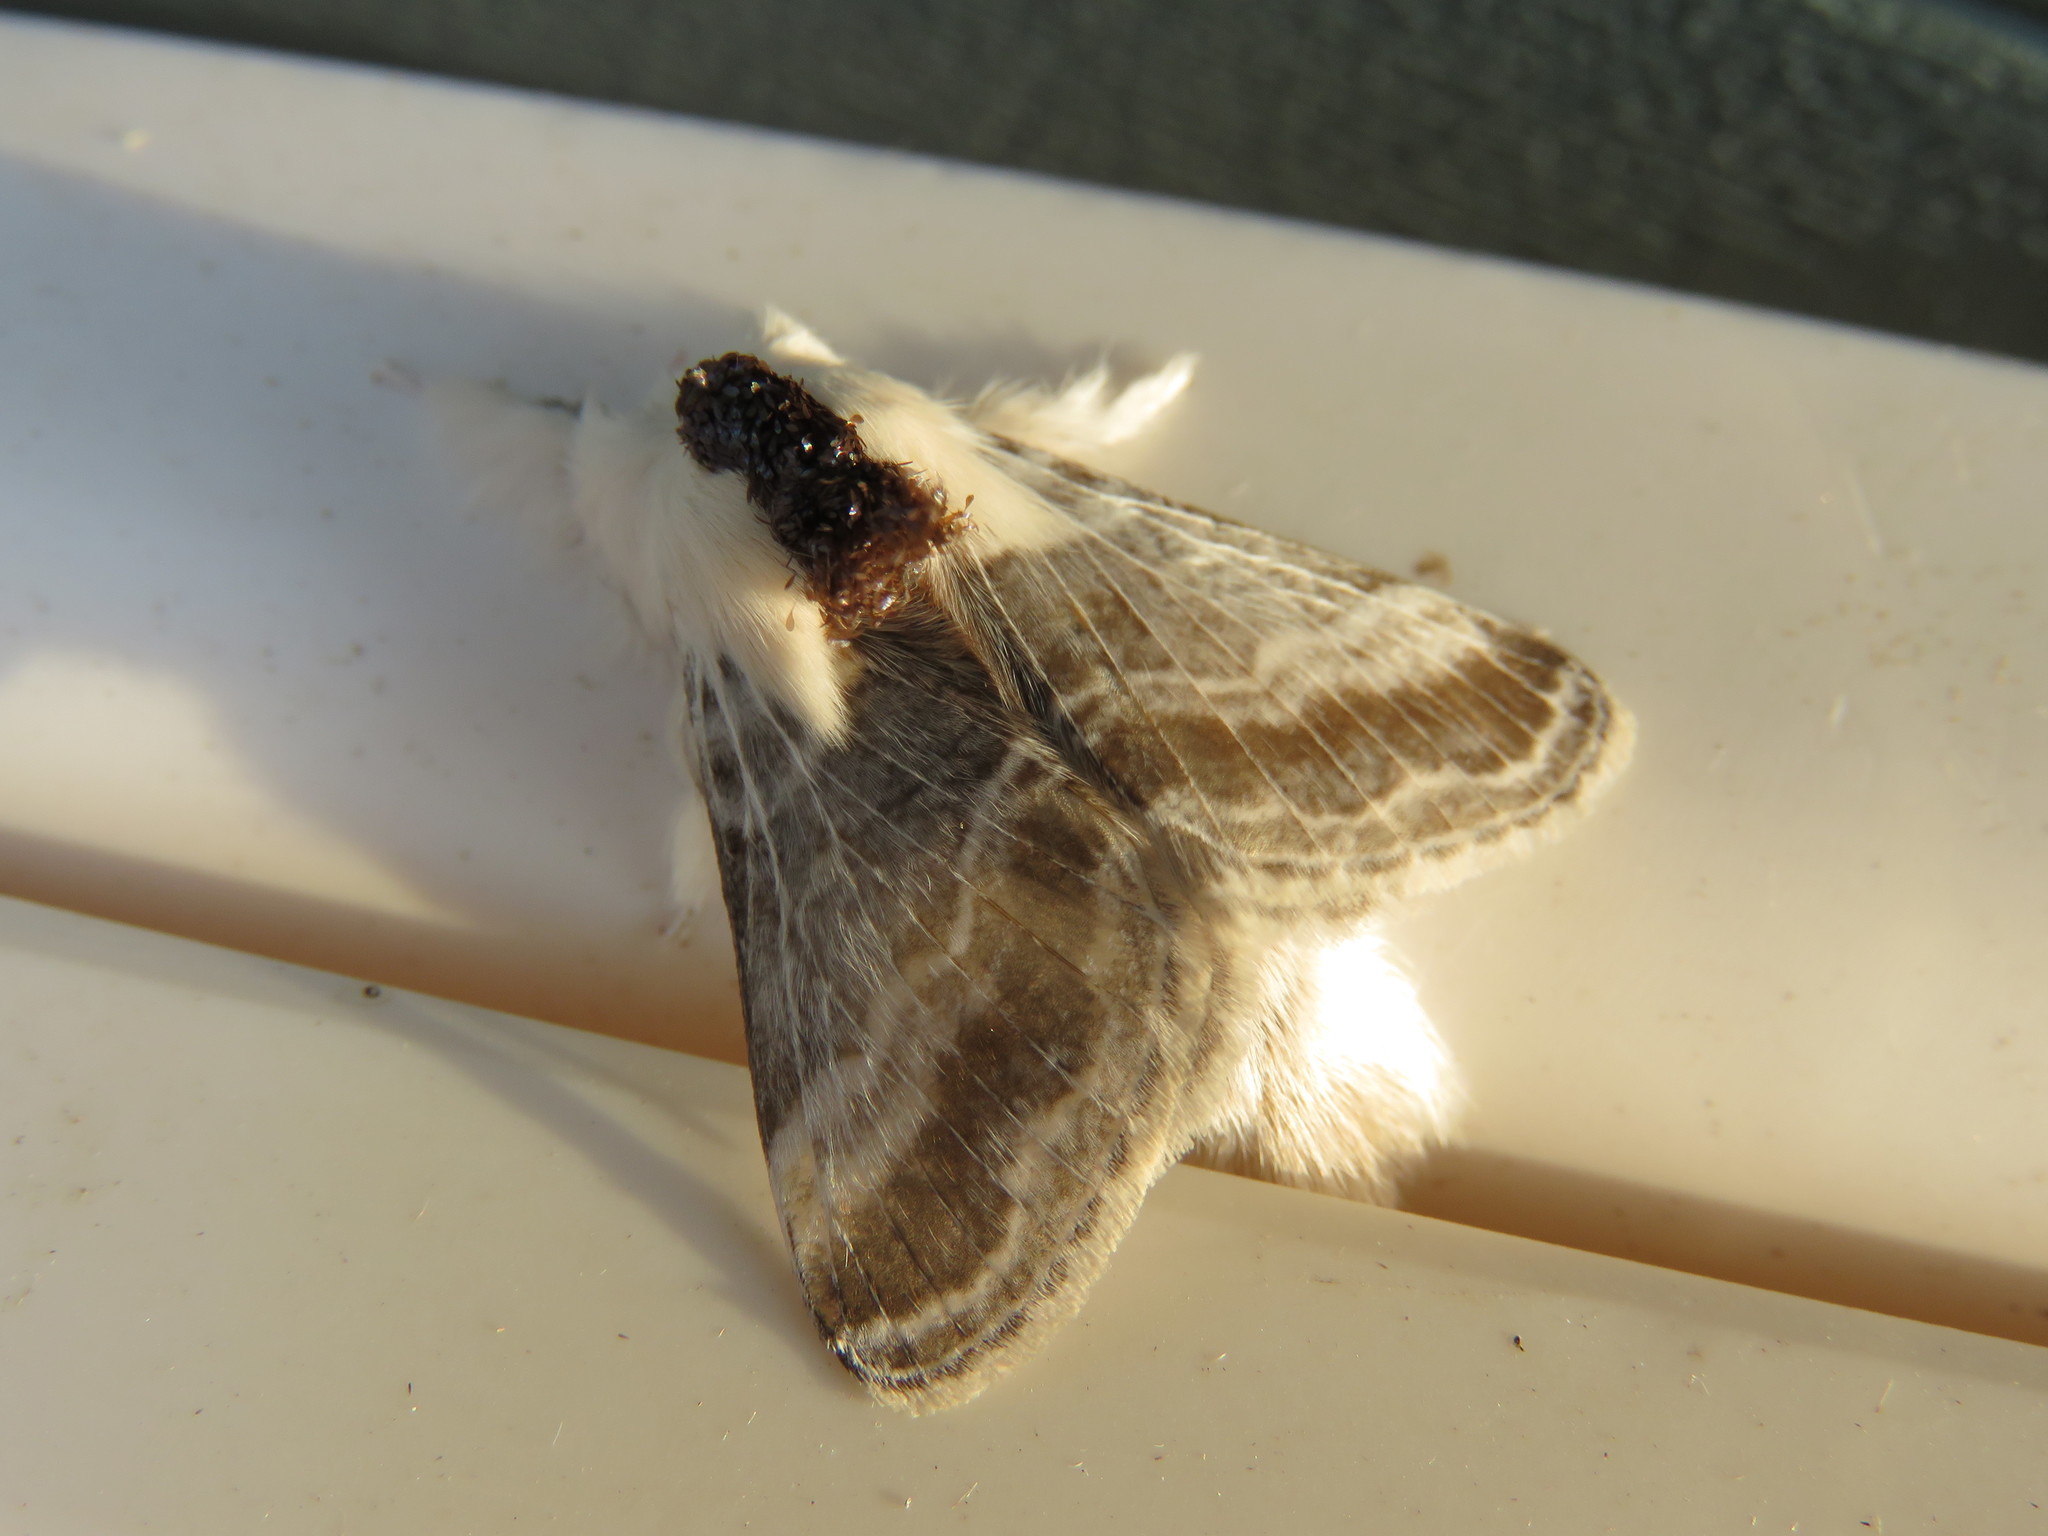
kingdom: Animalia
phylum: Arthropoda
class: Insecta
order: Lepidoptera
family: Lasiocampidae
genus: Tolype
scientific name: Tolype velleda
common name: Large tolype moth
